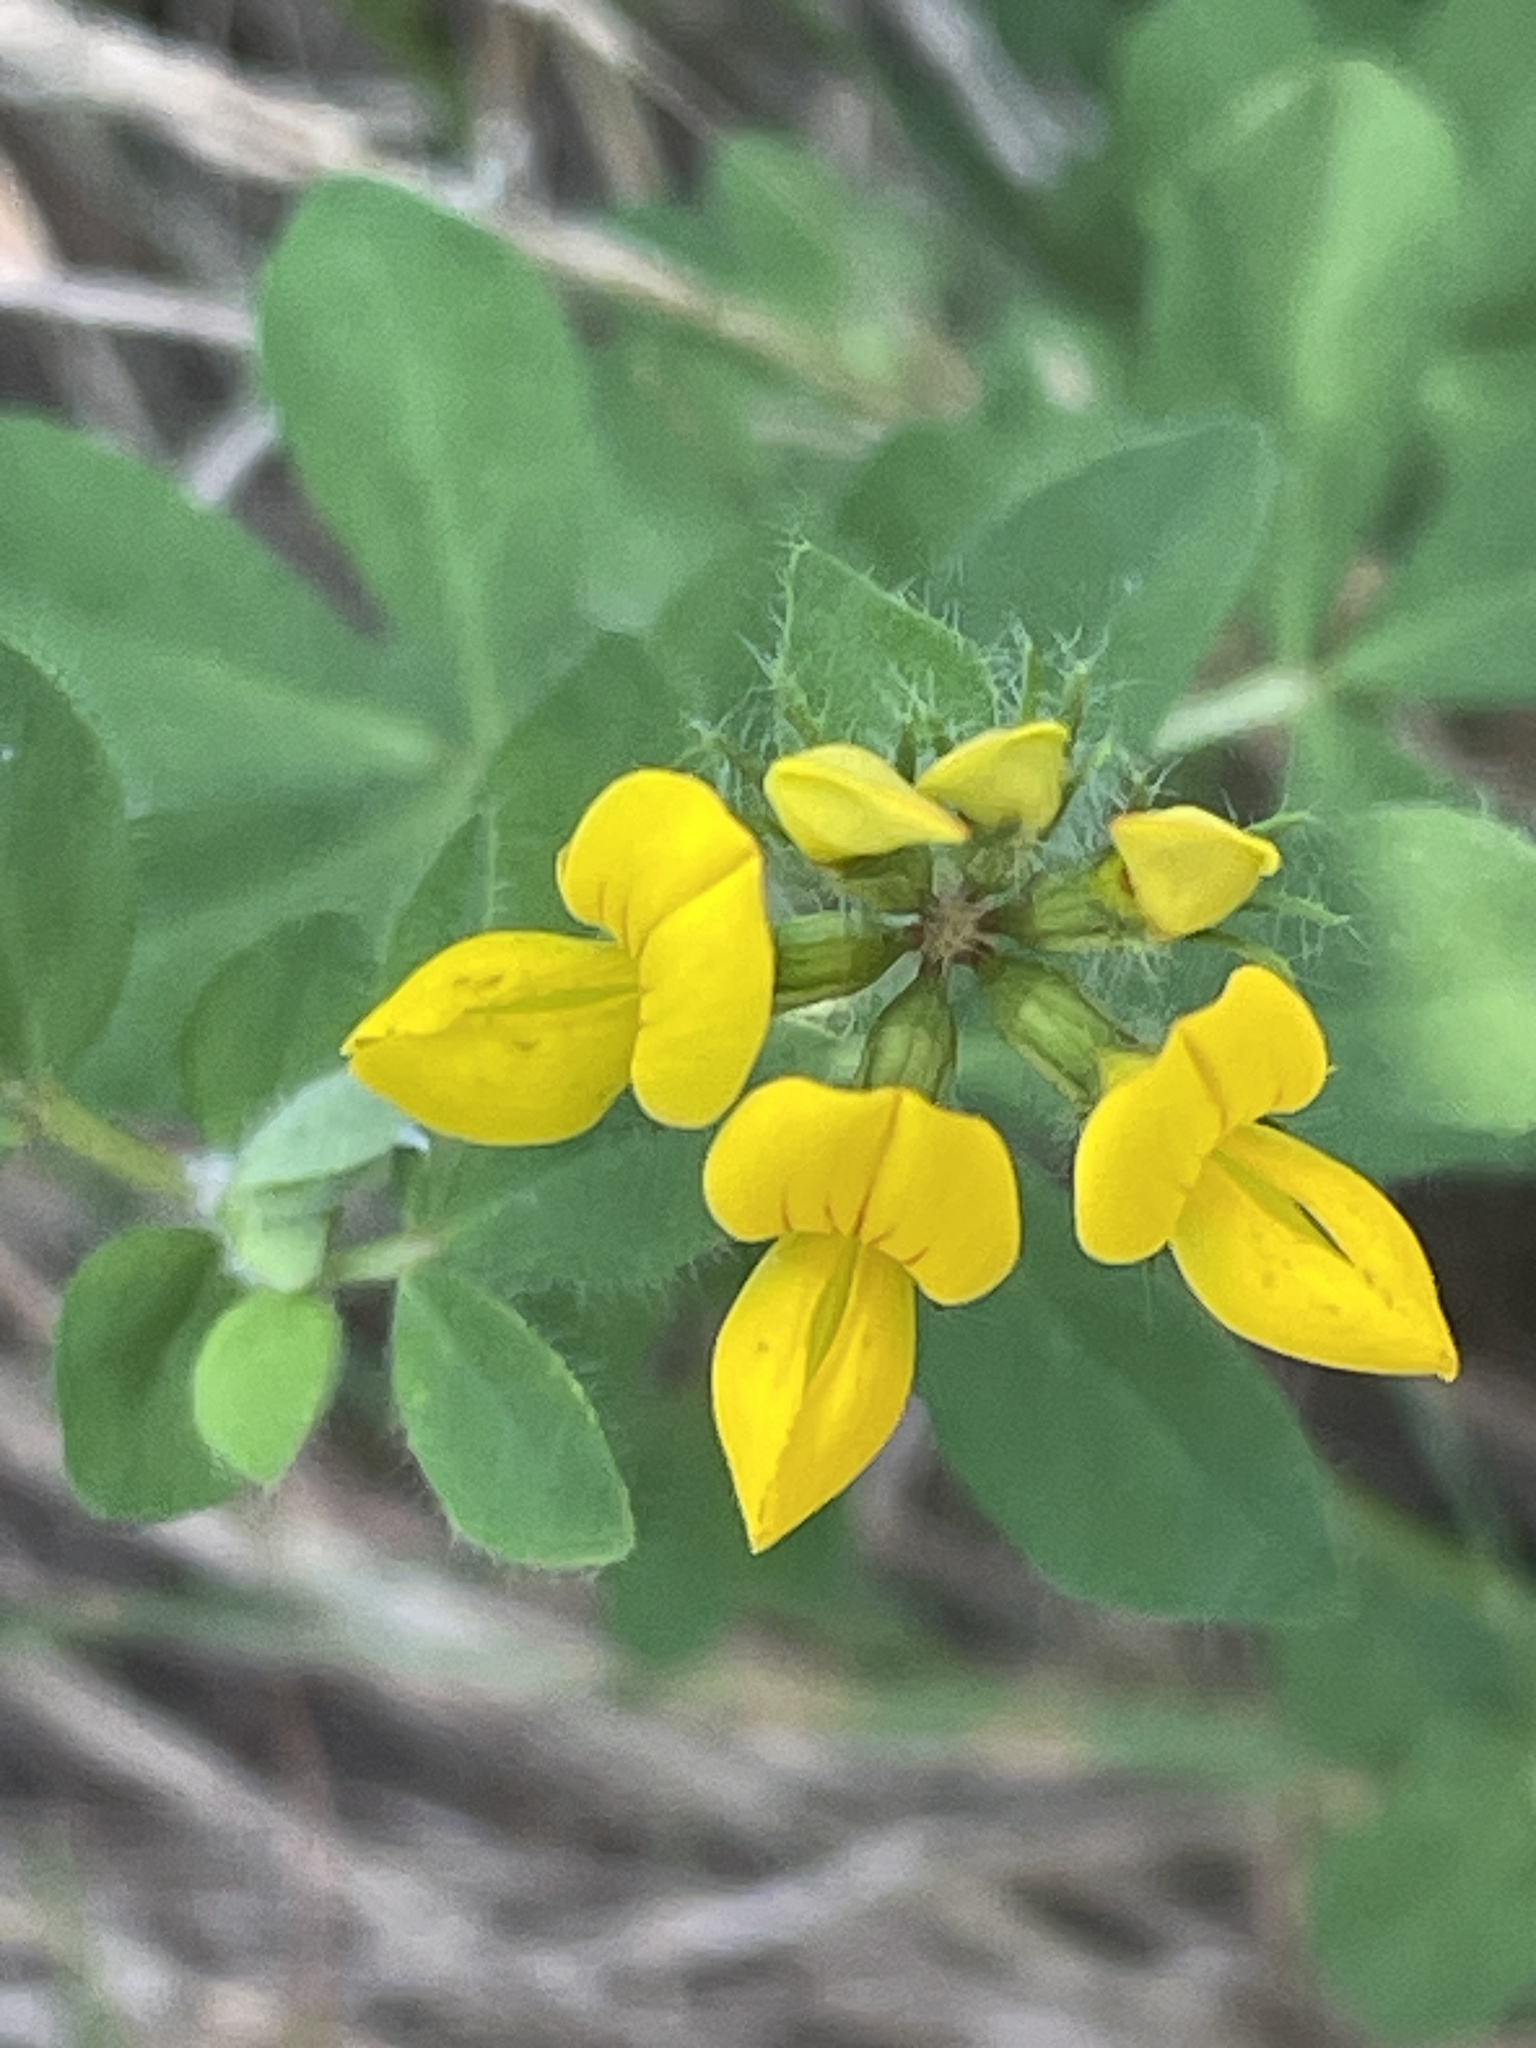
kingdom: Plantae
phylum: Tracheophyta
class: Magnoliopsida
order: Fabales
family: Fabaceae
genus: Lotus
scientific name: Lotus pedunculatus
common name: Greater birdsfoot-trefoil
